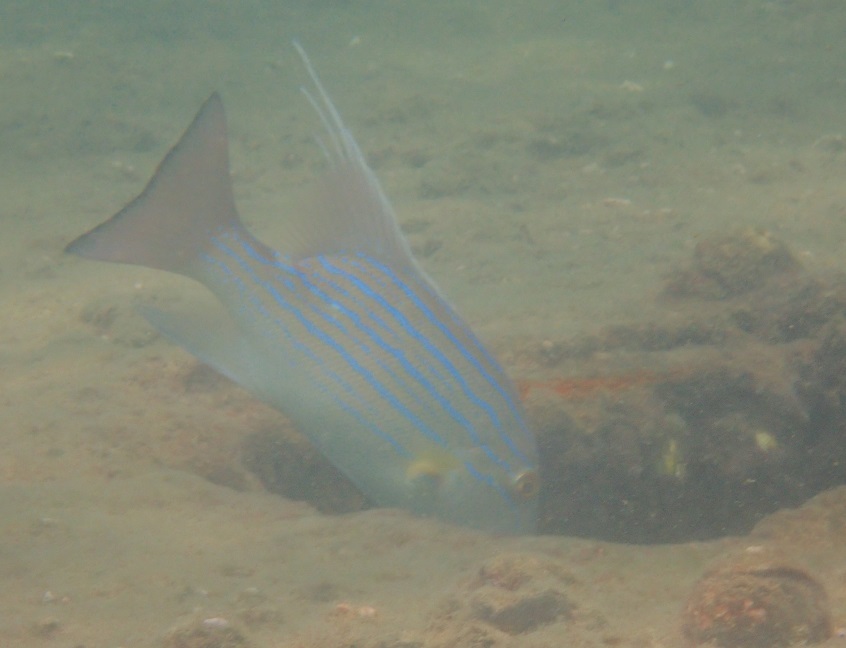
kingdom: Animalia
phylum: Chordata
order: Perciformes
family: Lutjanidae
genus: Symphorus
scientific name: Symphorus nematophorus
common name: Chinamanfish
